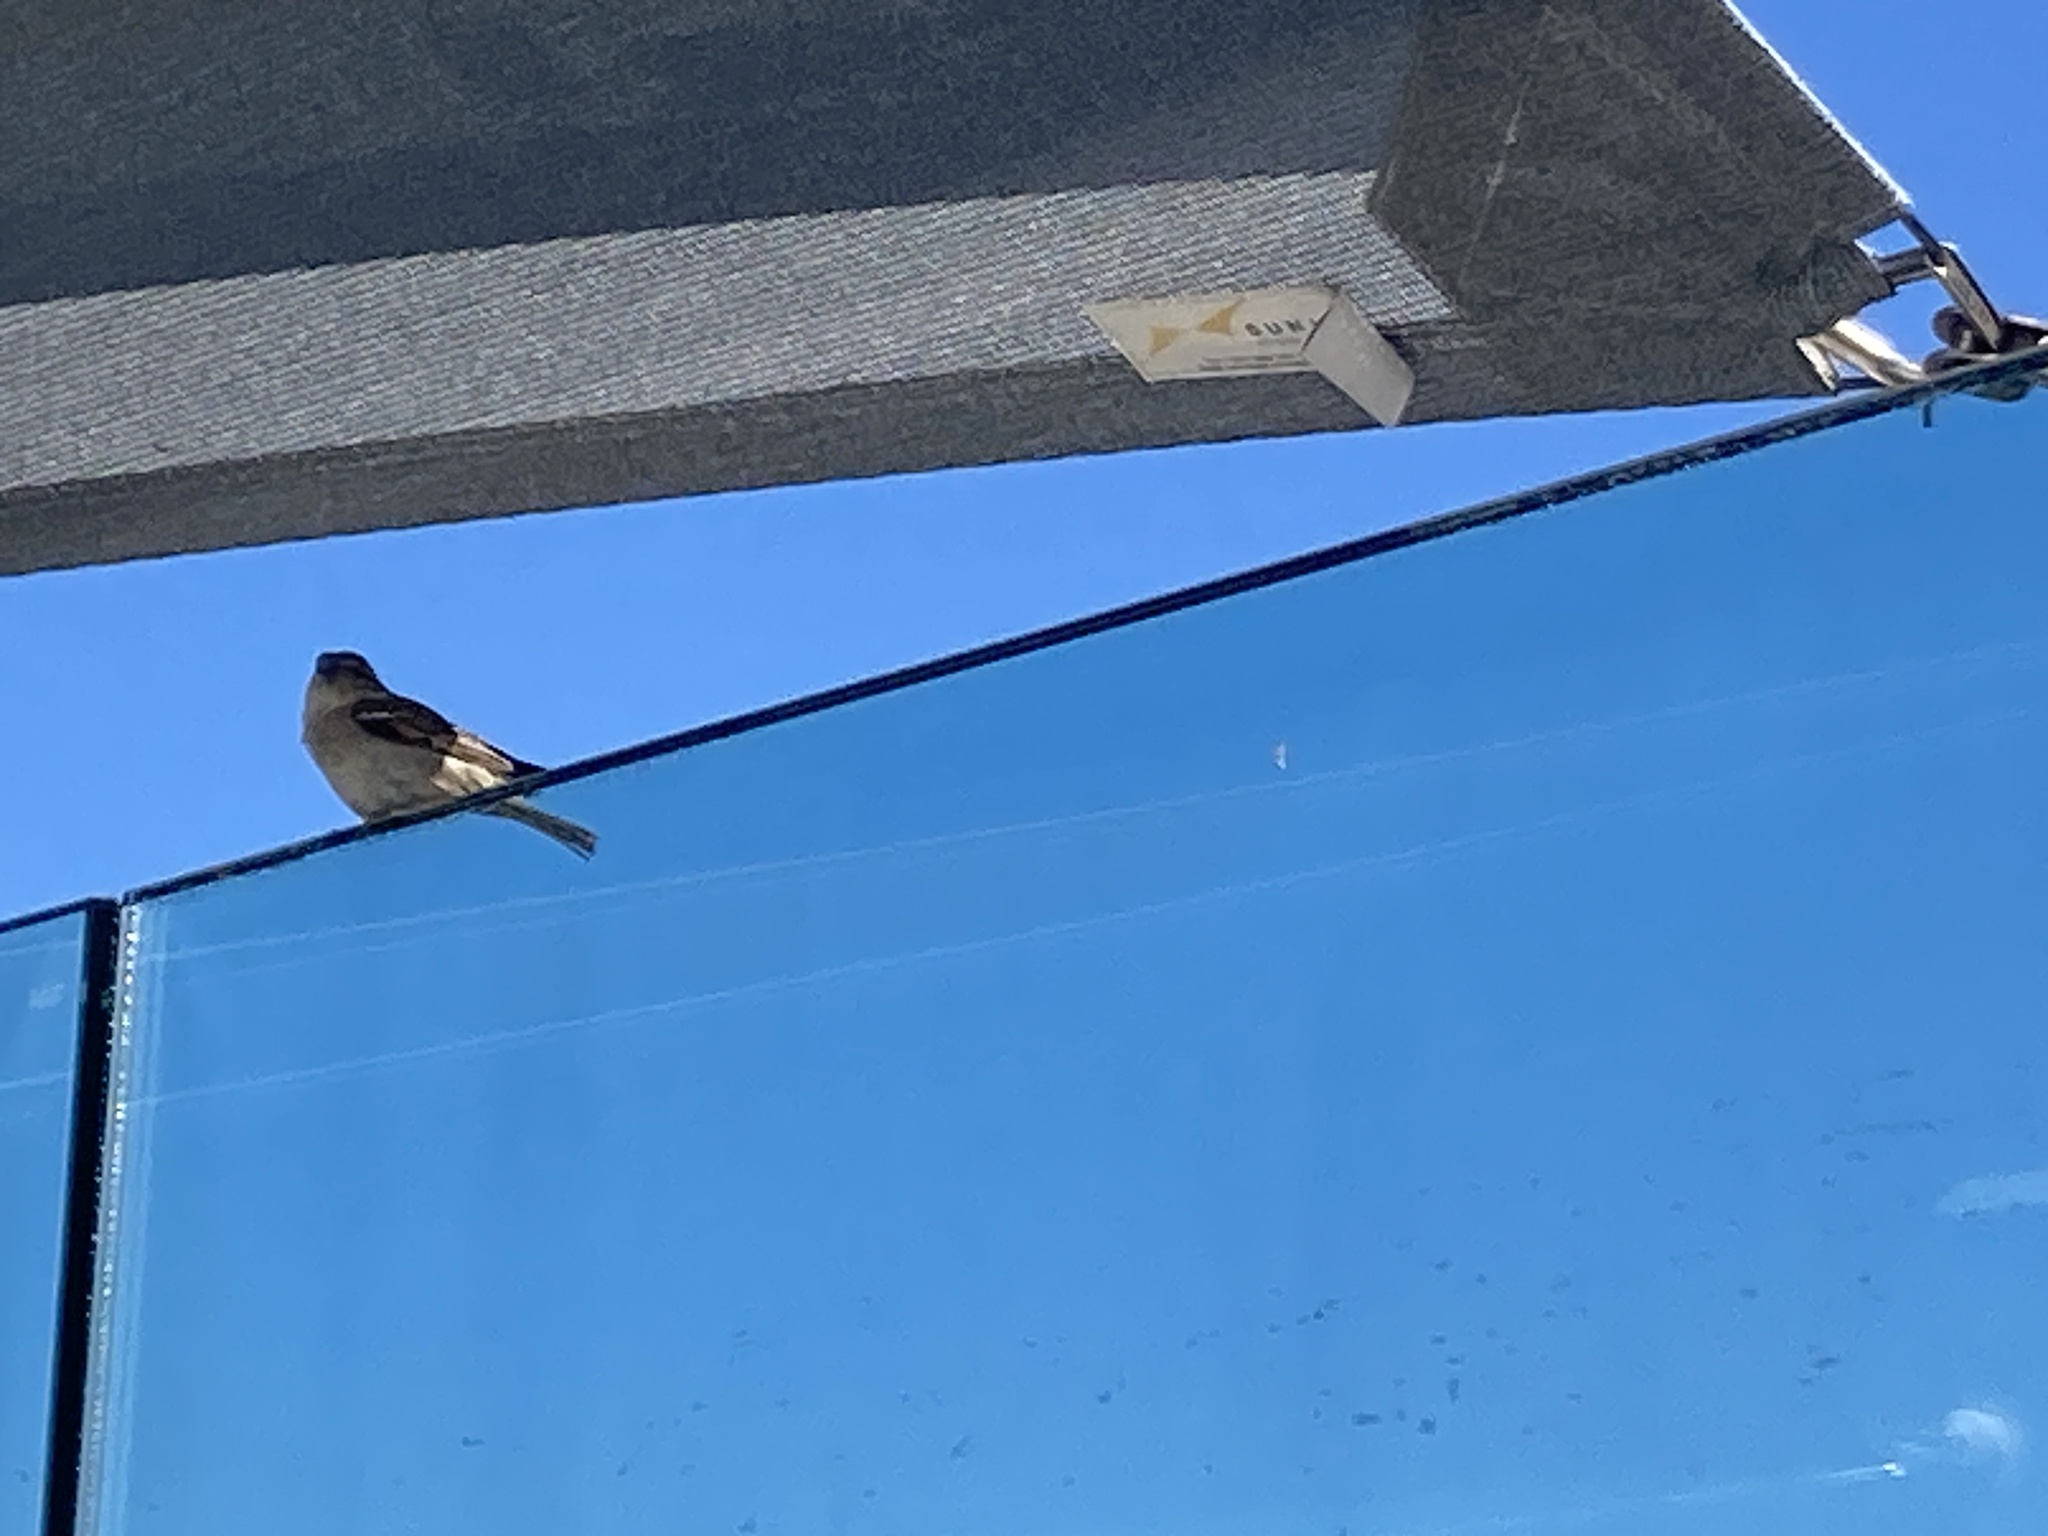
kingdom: Animalia
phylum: Chordata
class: Aves
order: Passeriformes
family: Passeridae
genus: Passer
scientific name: Passer domesticus
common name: House sparrow
